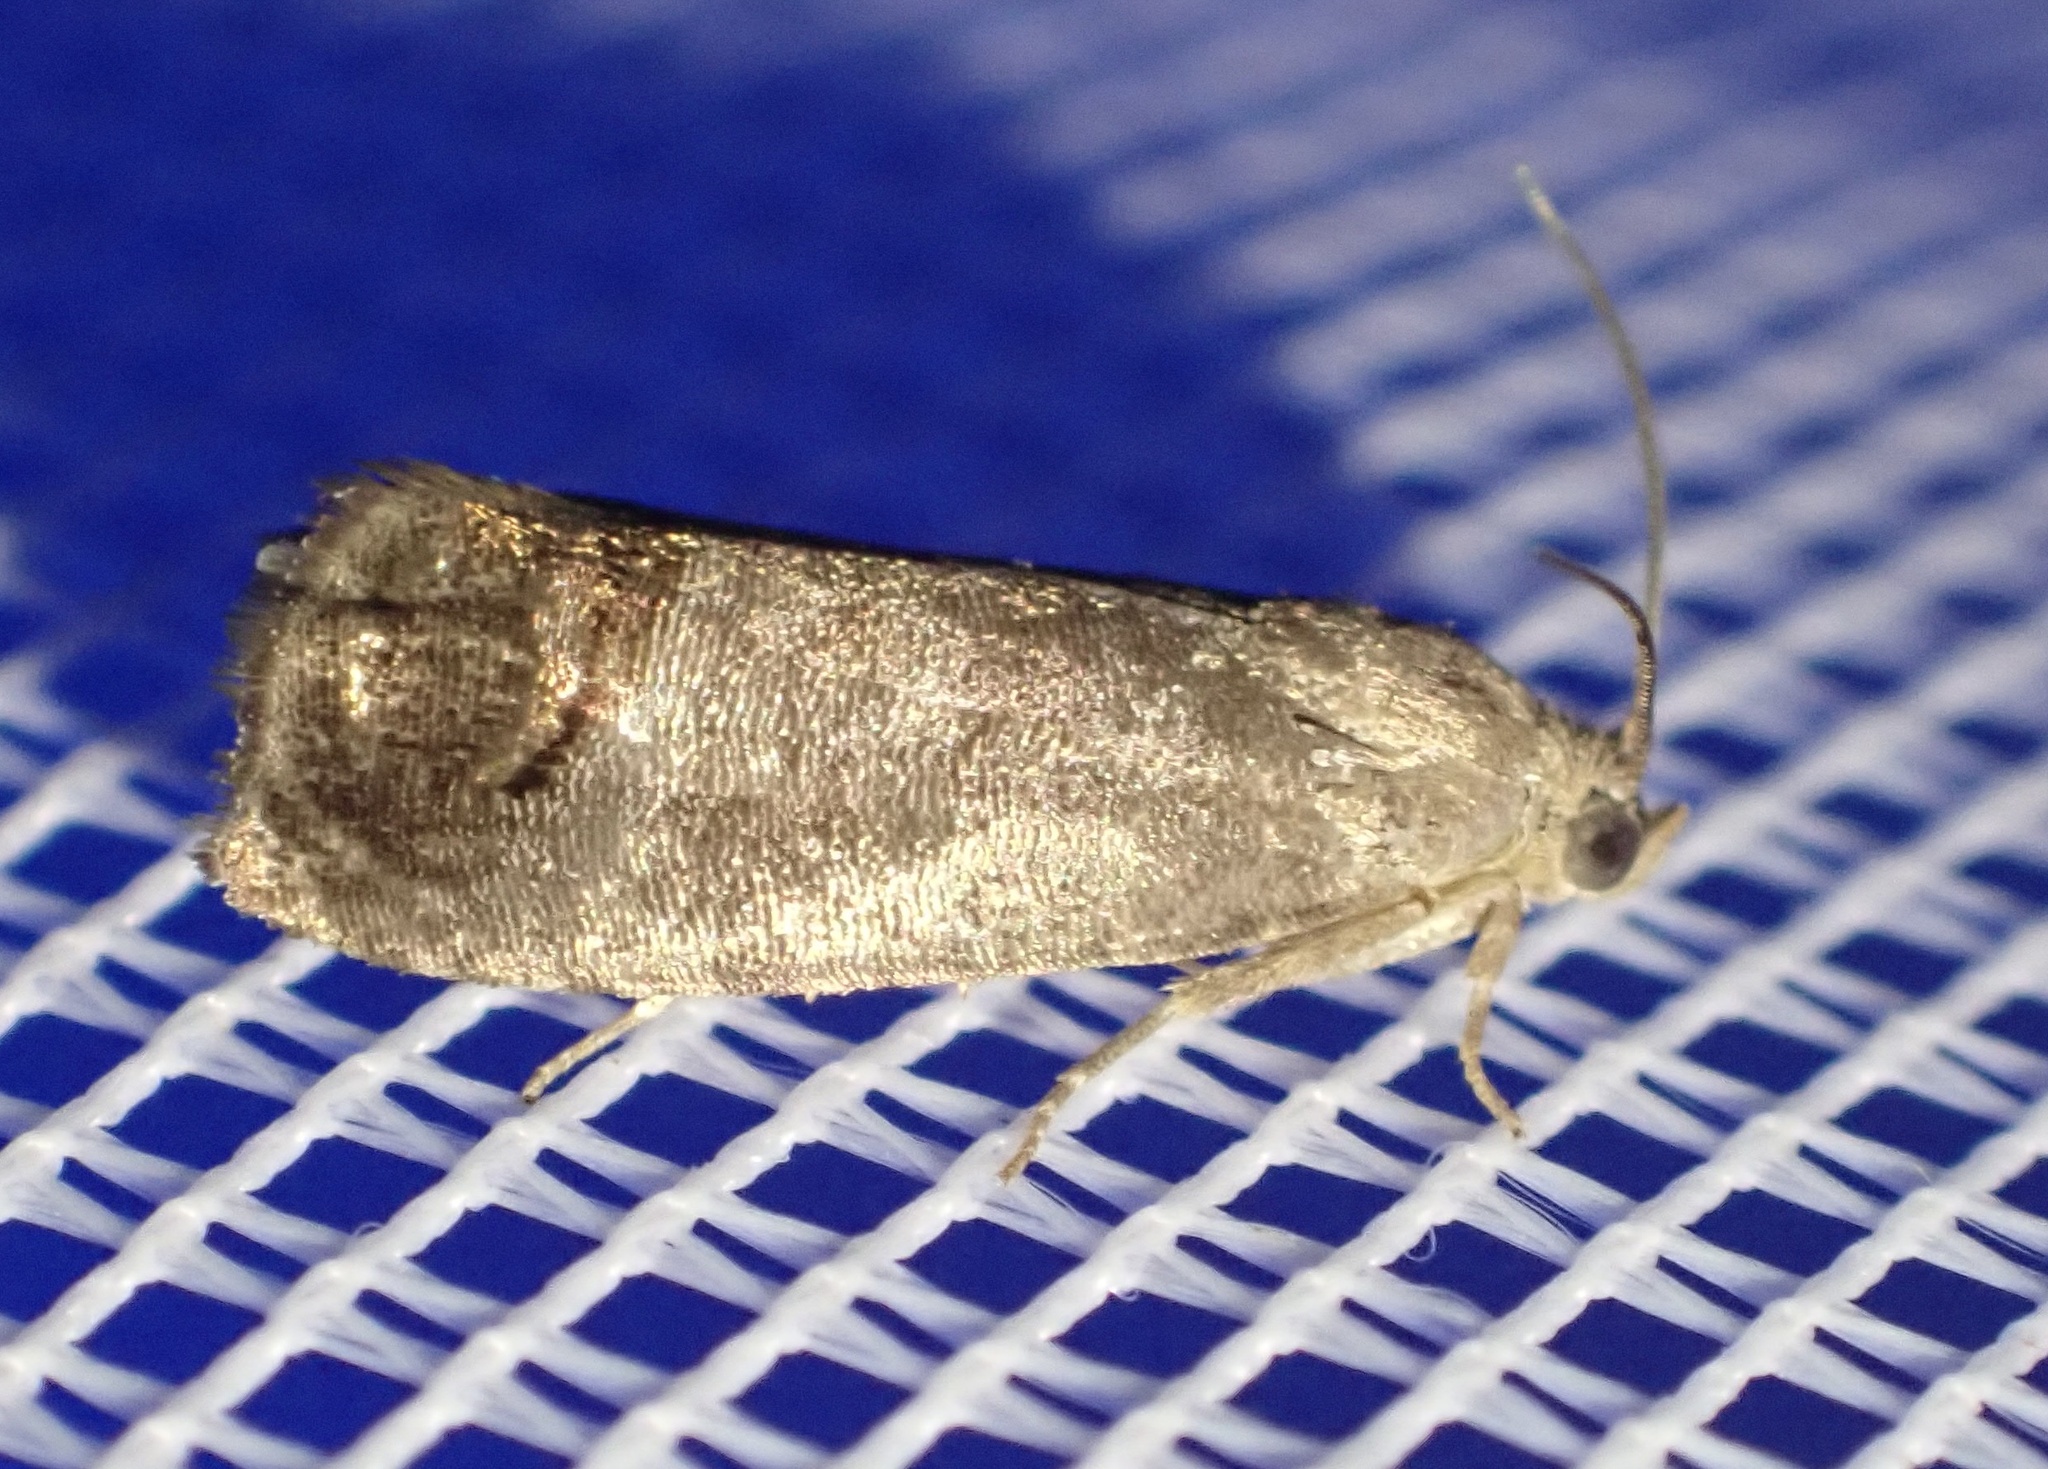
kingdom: Animalia
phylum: Arthropoda
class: Insecta
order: Lepidoptera
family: Tortricidae
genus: Cydia
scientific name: Cydia pomonella
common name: Codling moth
